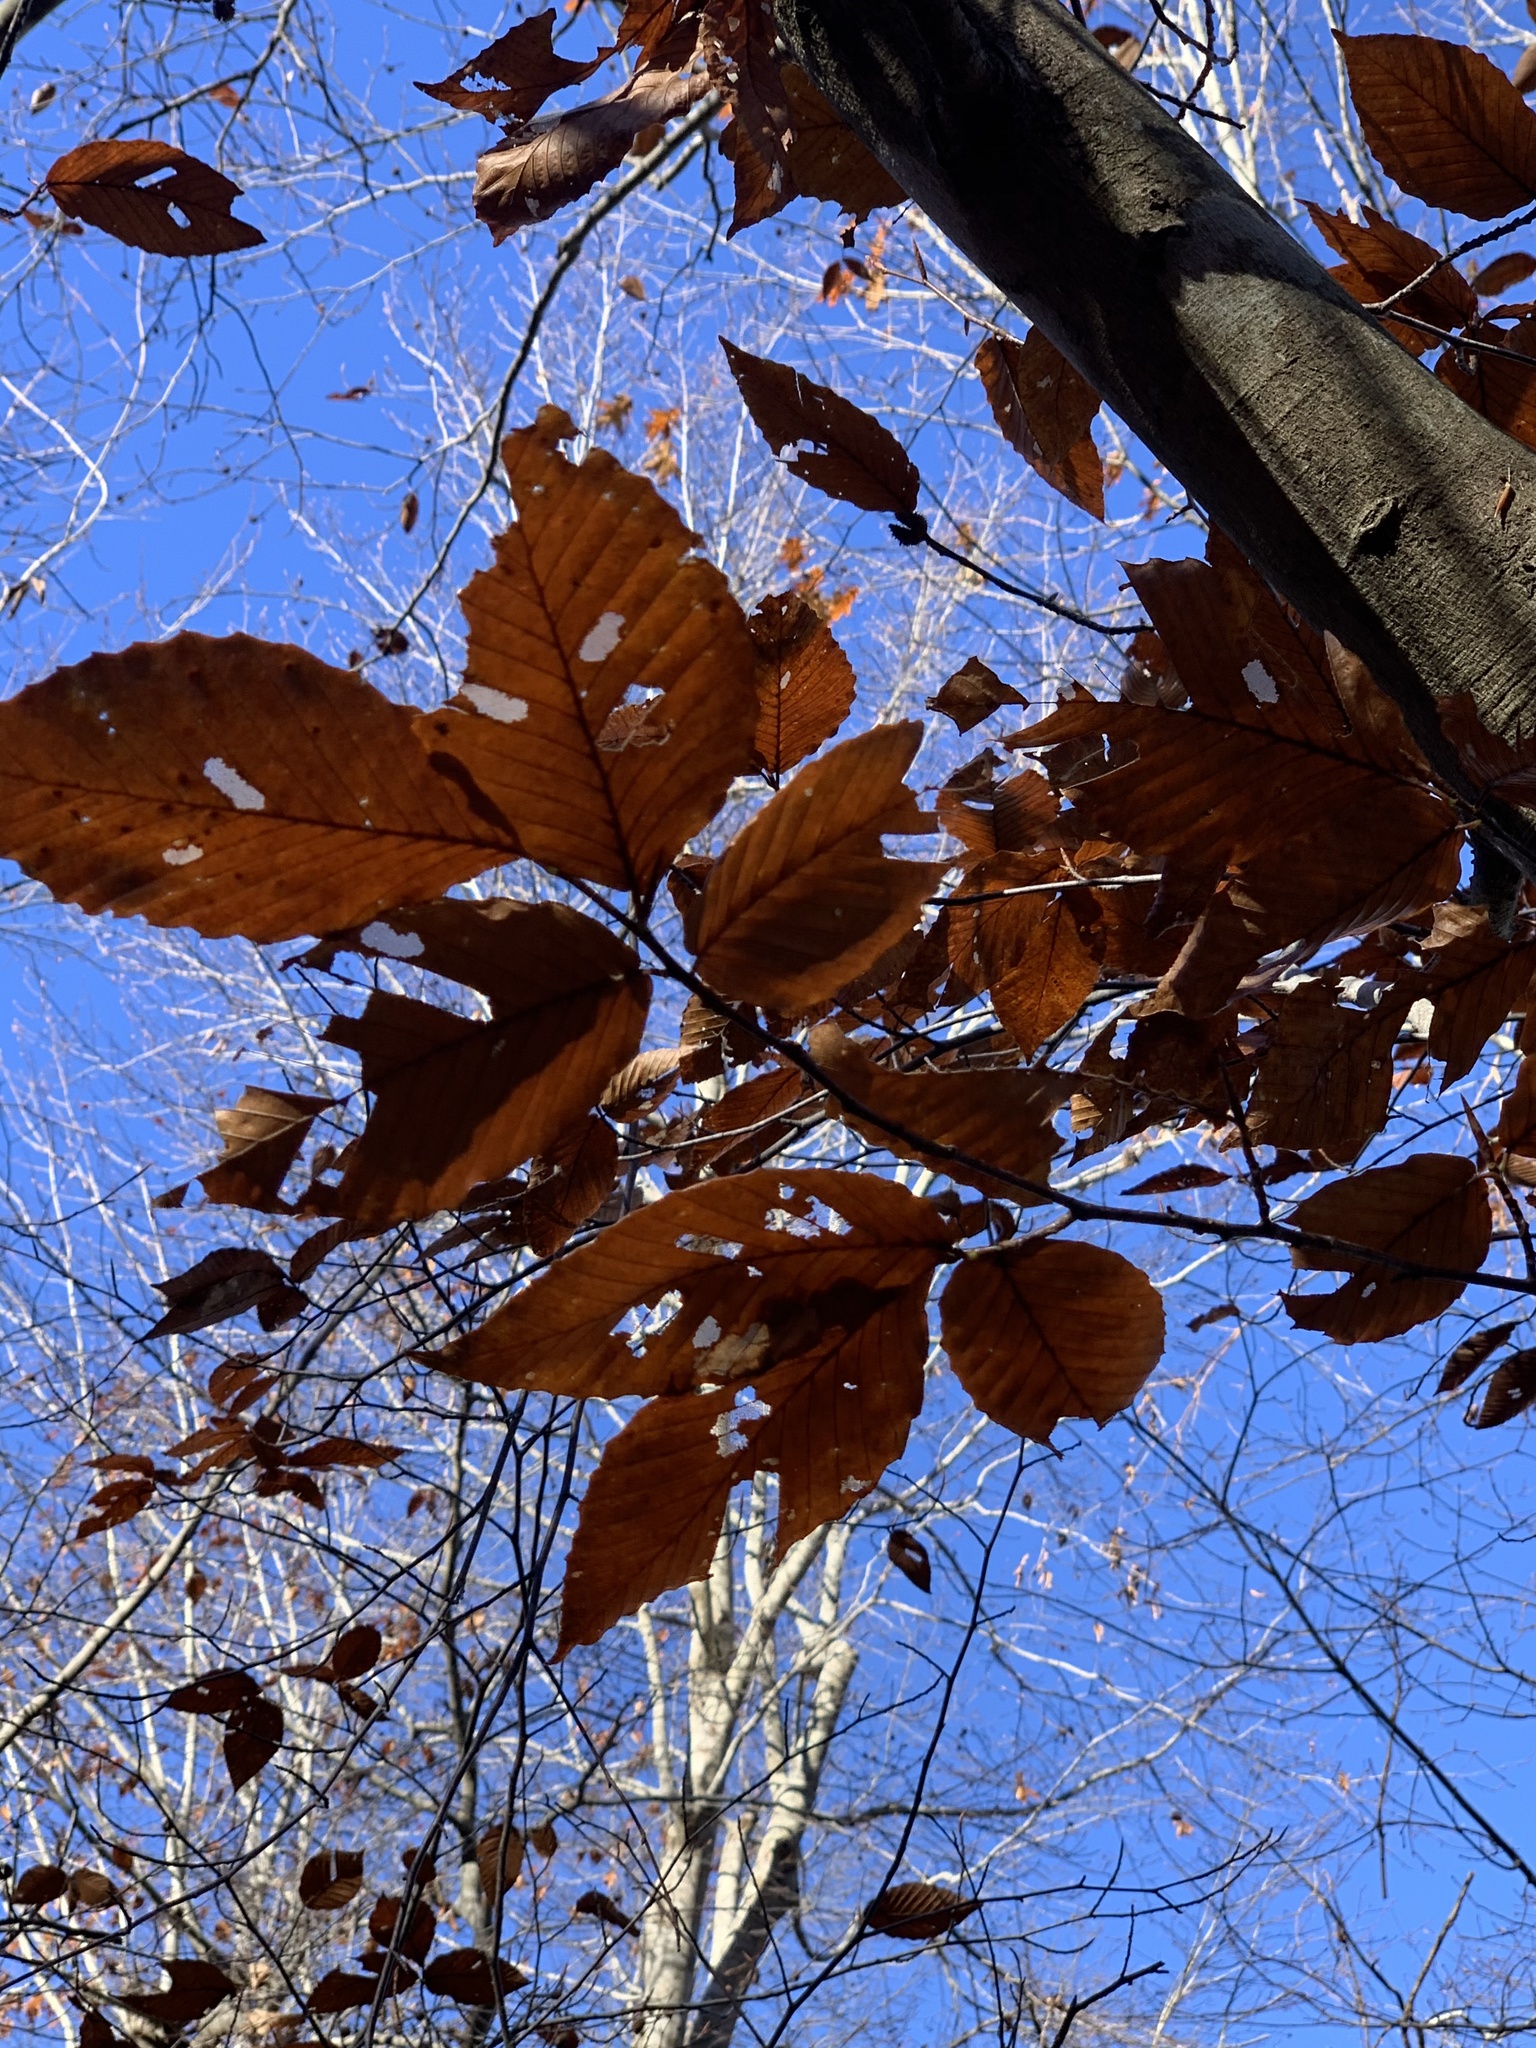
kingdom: Plantae
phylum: Tracheophyta
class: Magnoliopsida
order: Fagales
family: Fagaceae
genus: Fagus
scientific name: Fagus grandifolia
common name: American beech
